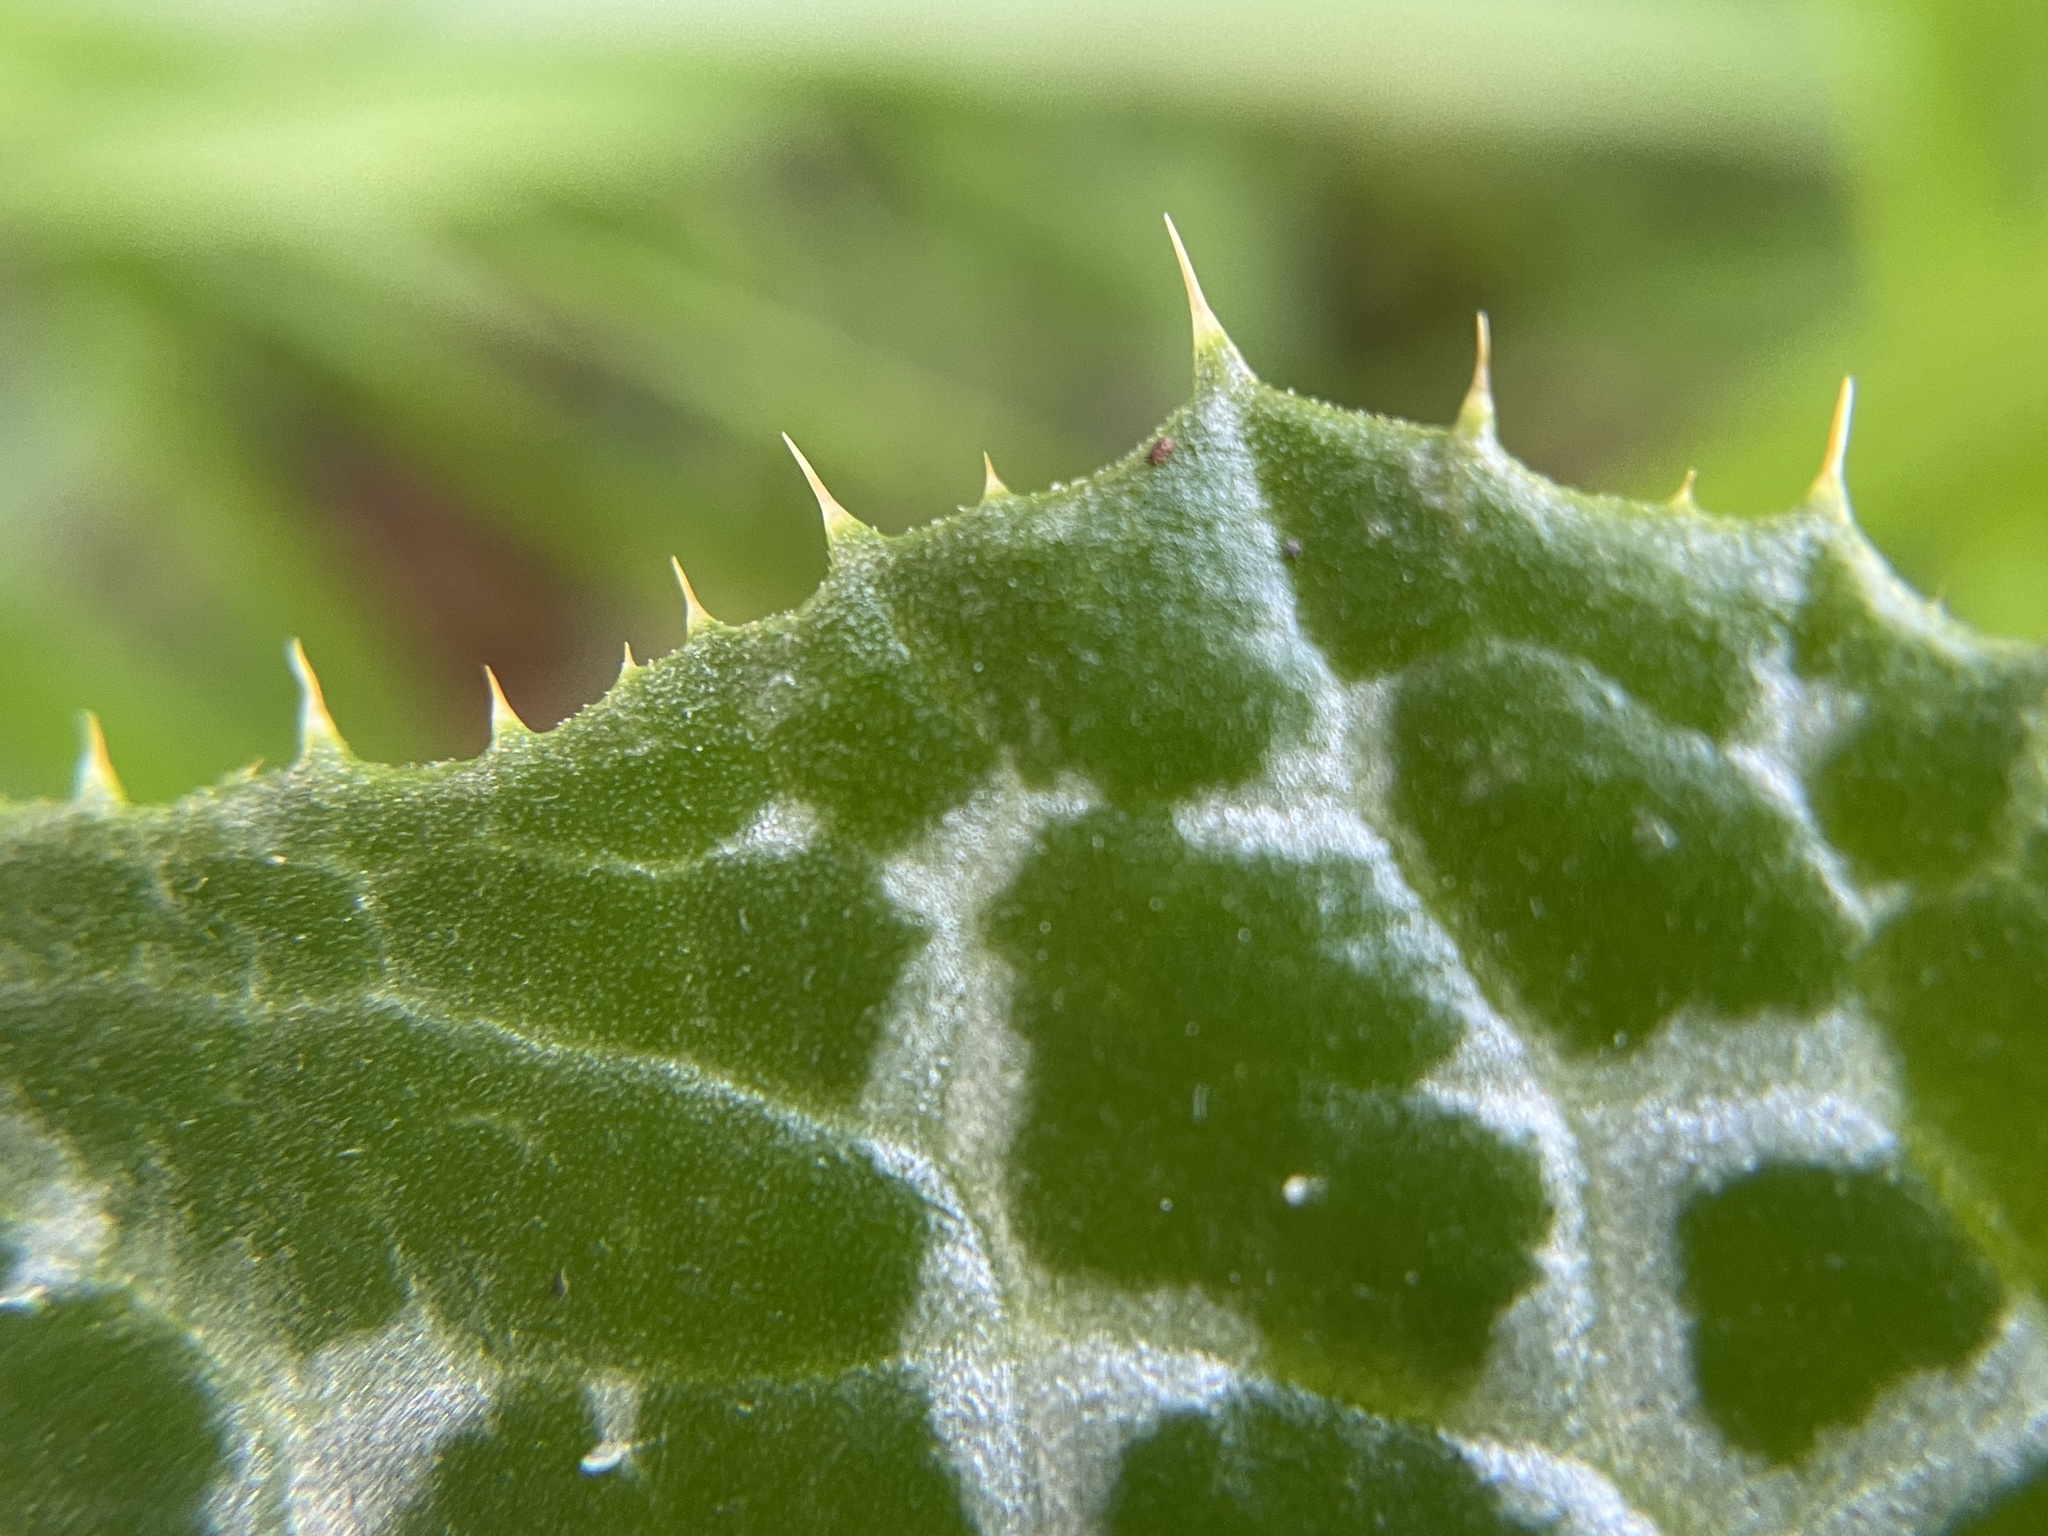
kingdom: Plantae
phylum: Tracheophyta
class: Magnoliopsida
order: Asterales
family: Asteraceae
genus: Silybum
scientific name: Silybum marianum
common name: Milk thistle
